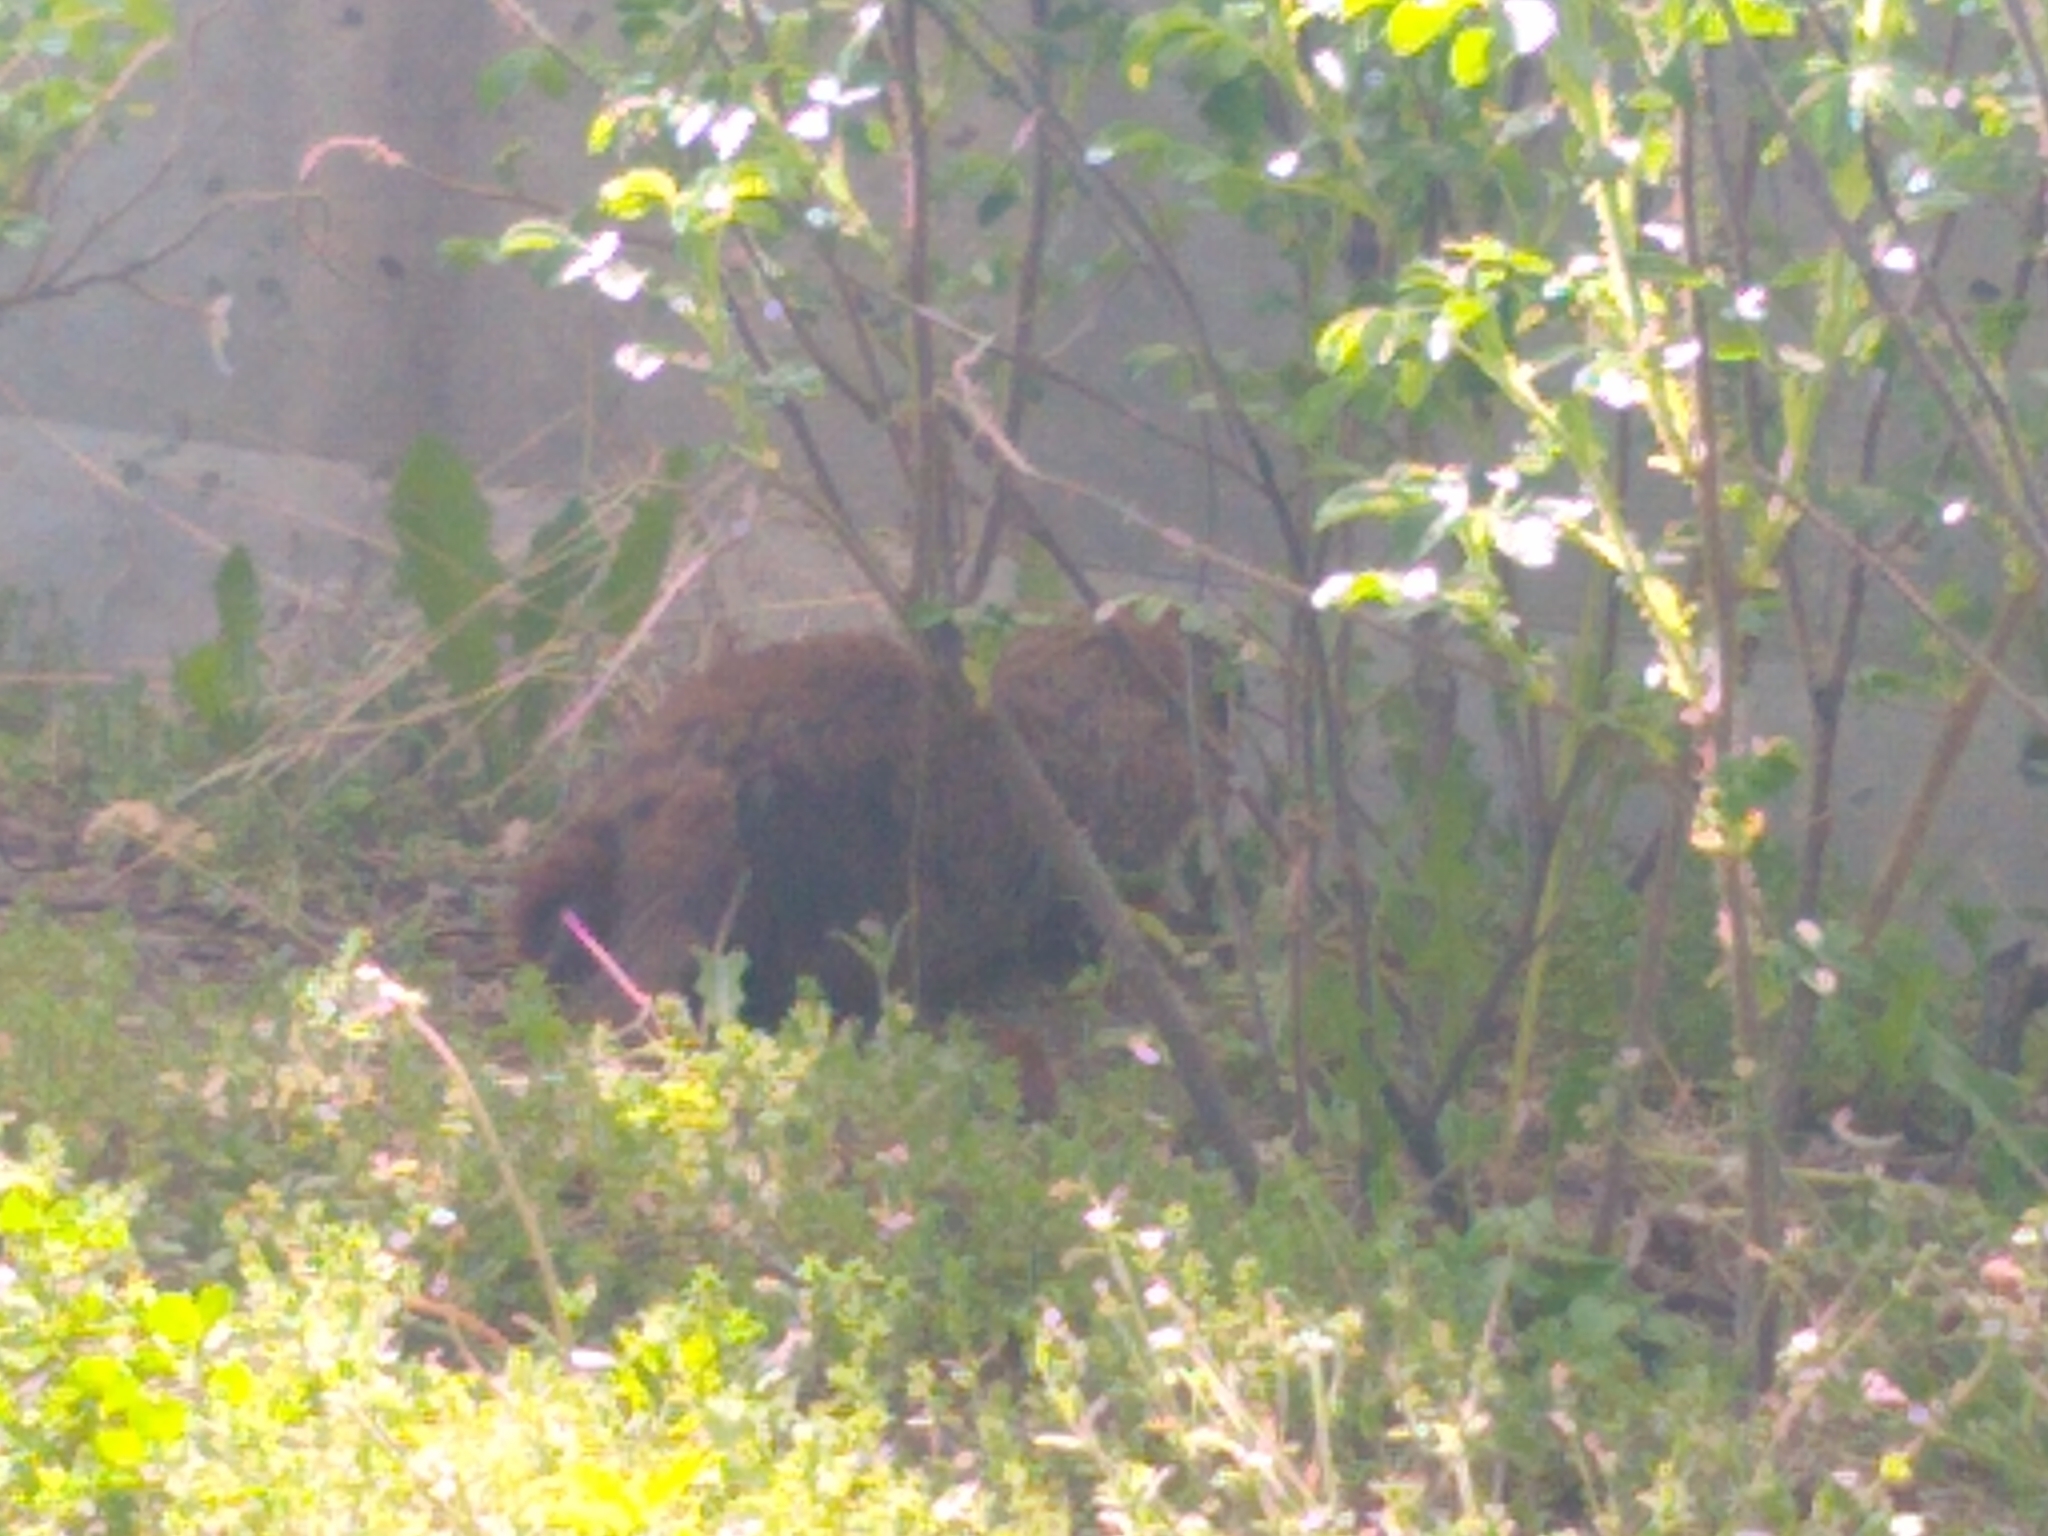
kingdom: Animalia
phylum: Chordata
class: Mammalia
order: Rodentia
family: Sciuridae
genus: Marmota
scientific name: Marmota monax
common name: Groundhog
